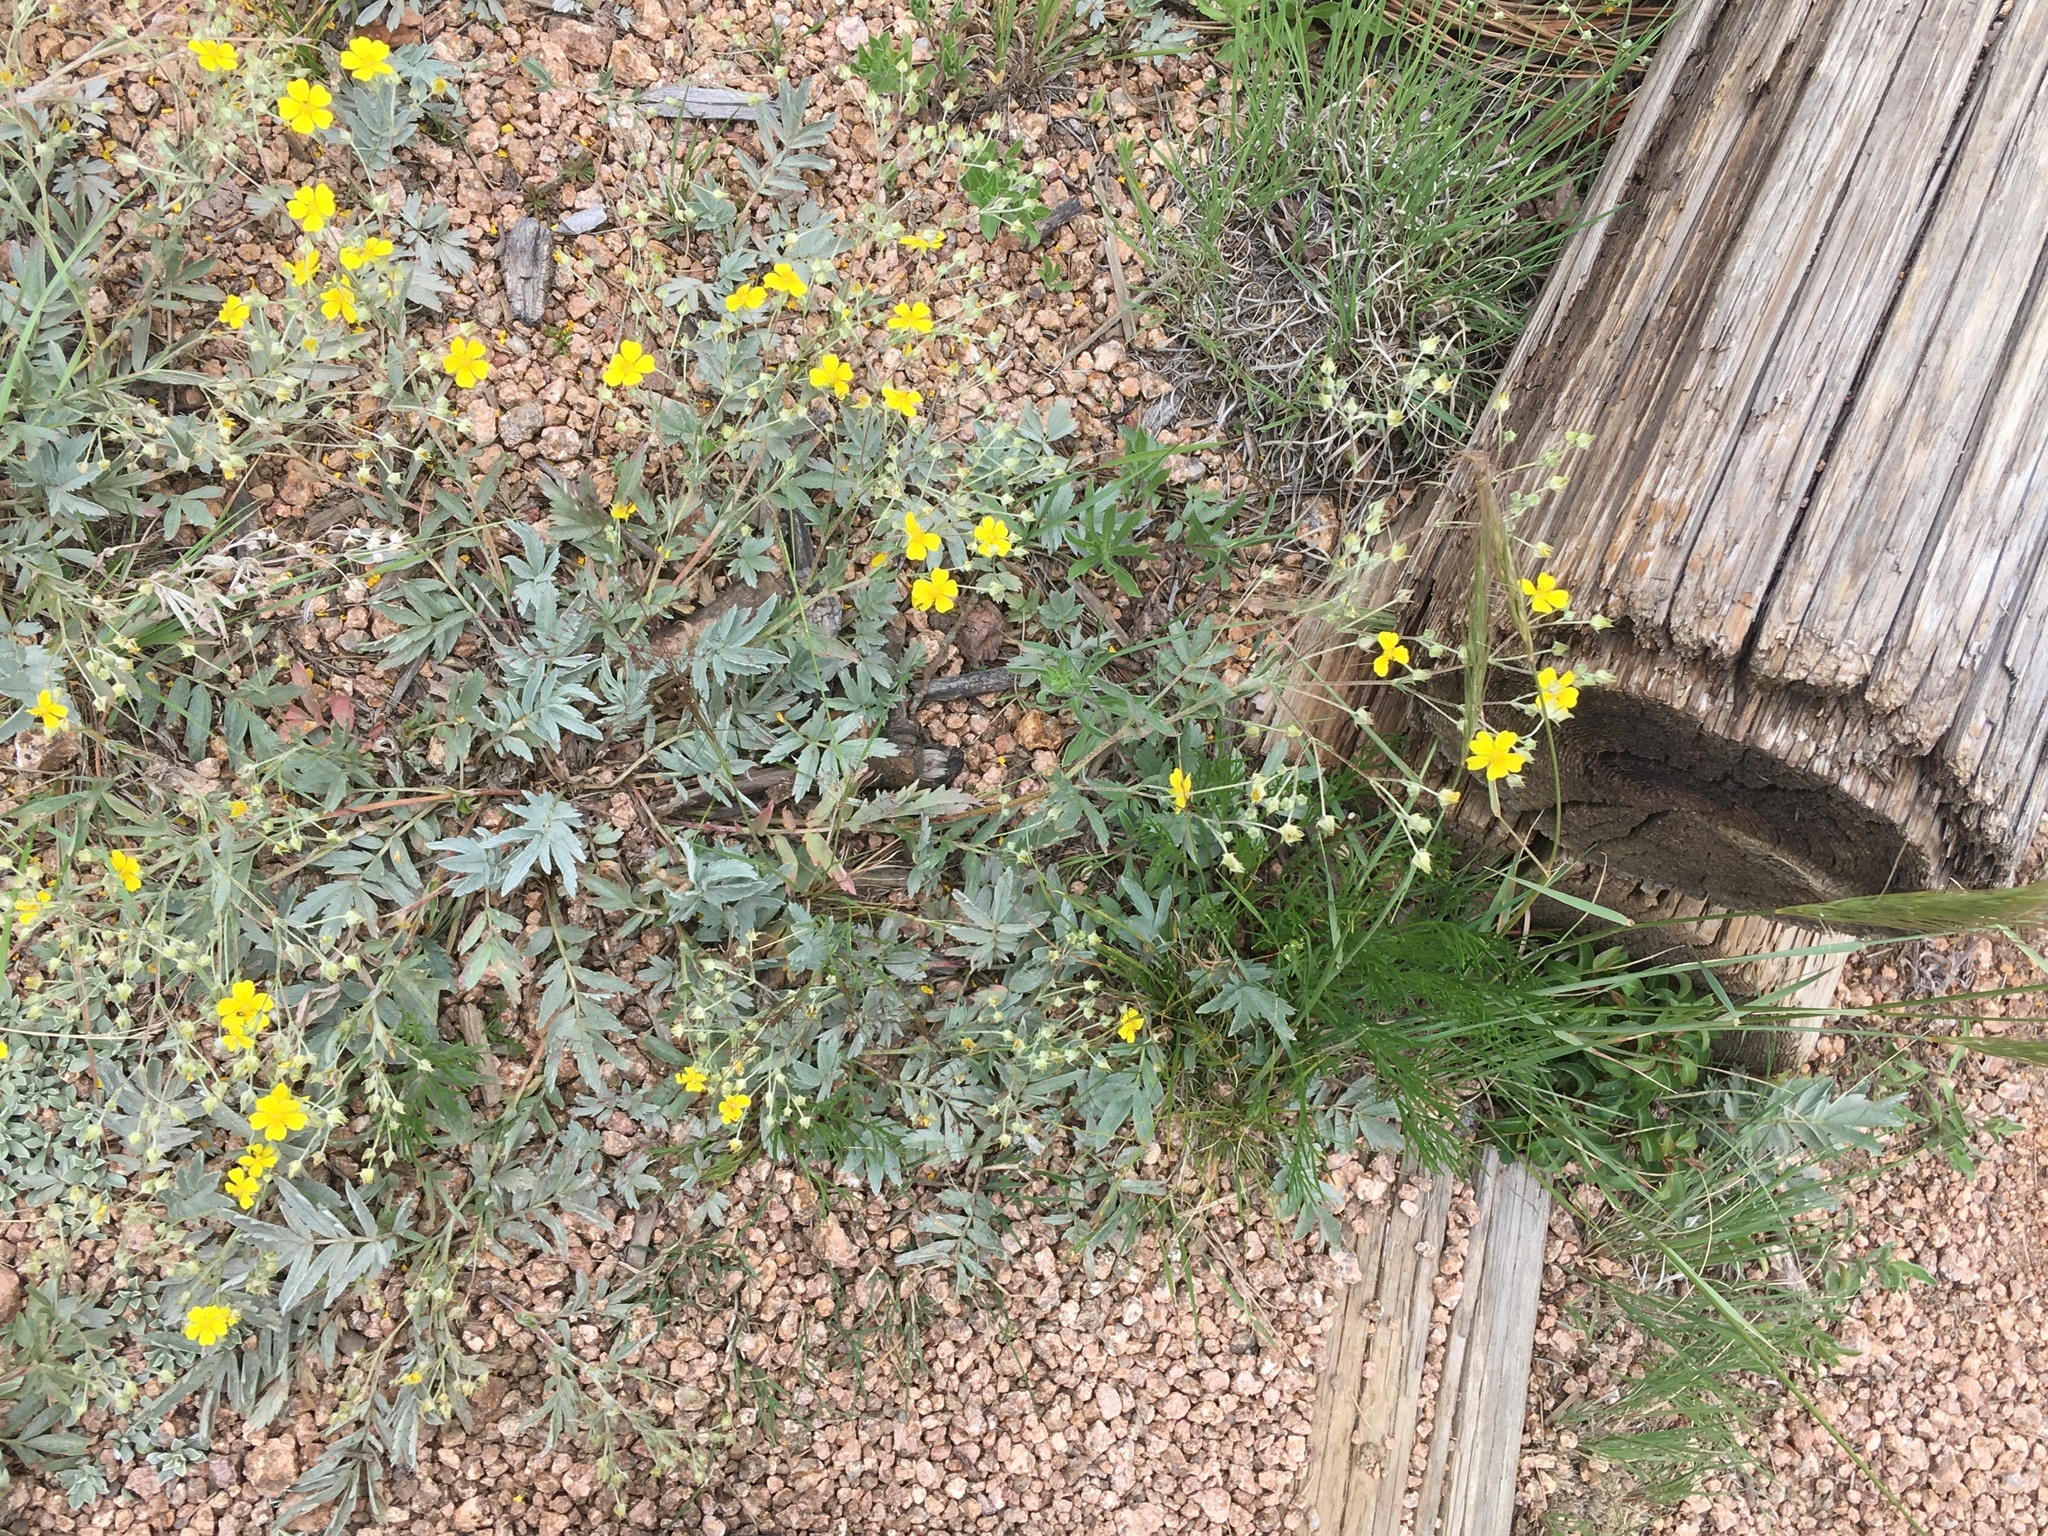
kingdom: Plantae
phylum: Tracheophyta
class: Magnoliopsida
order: Rosales
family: Rosaceae
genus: Potentilla
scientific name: Potentilla hippiana
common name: Woolly cinquefoil
